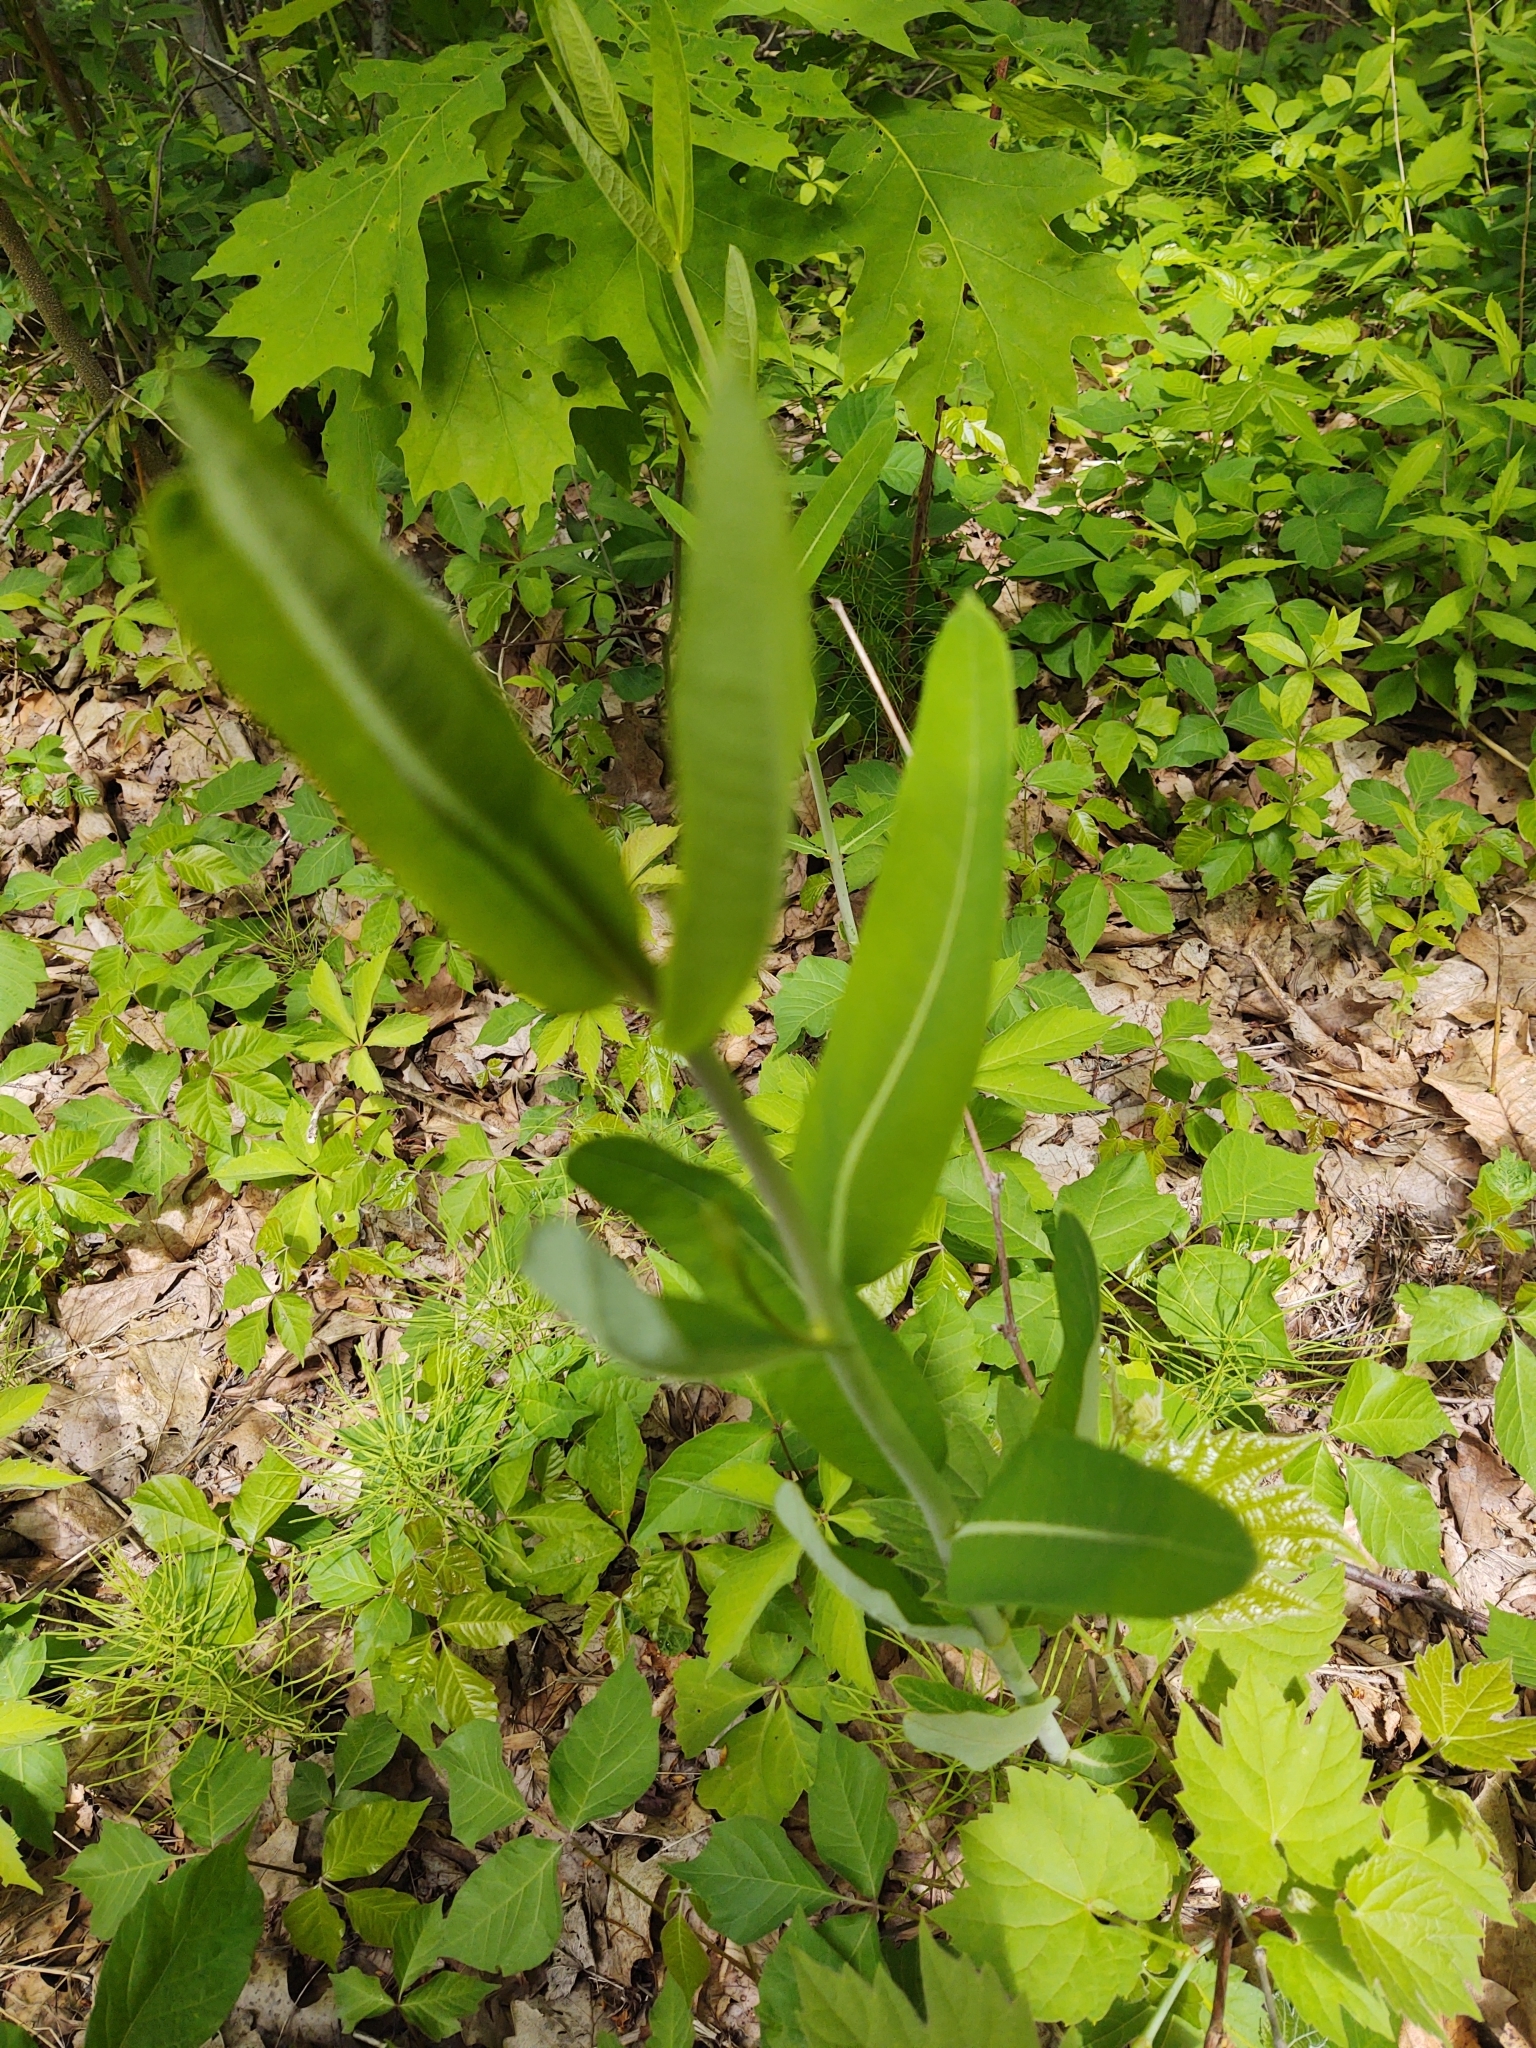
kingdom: Plantae
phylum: Tracheophyta
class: Magnoliopsida
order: Gentianales
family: Apocynaceae
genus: Apocynum
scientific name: Apocynum cannabinum
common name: Hemp dogbane
